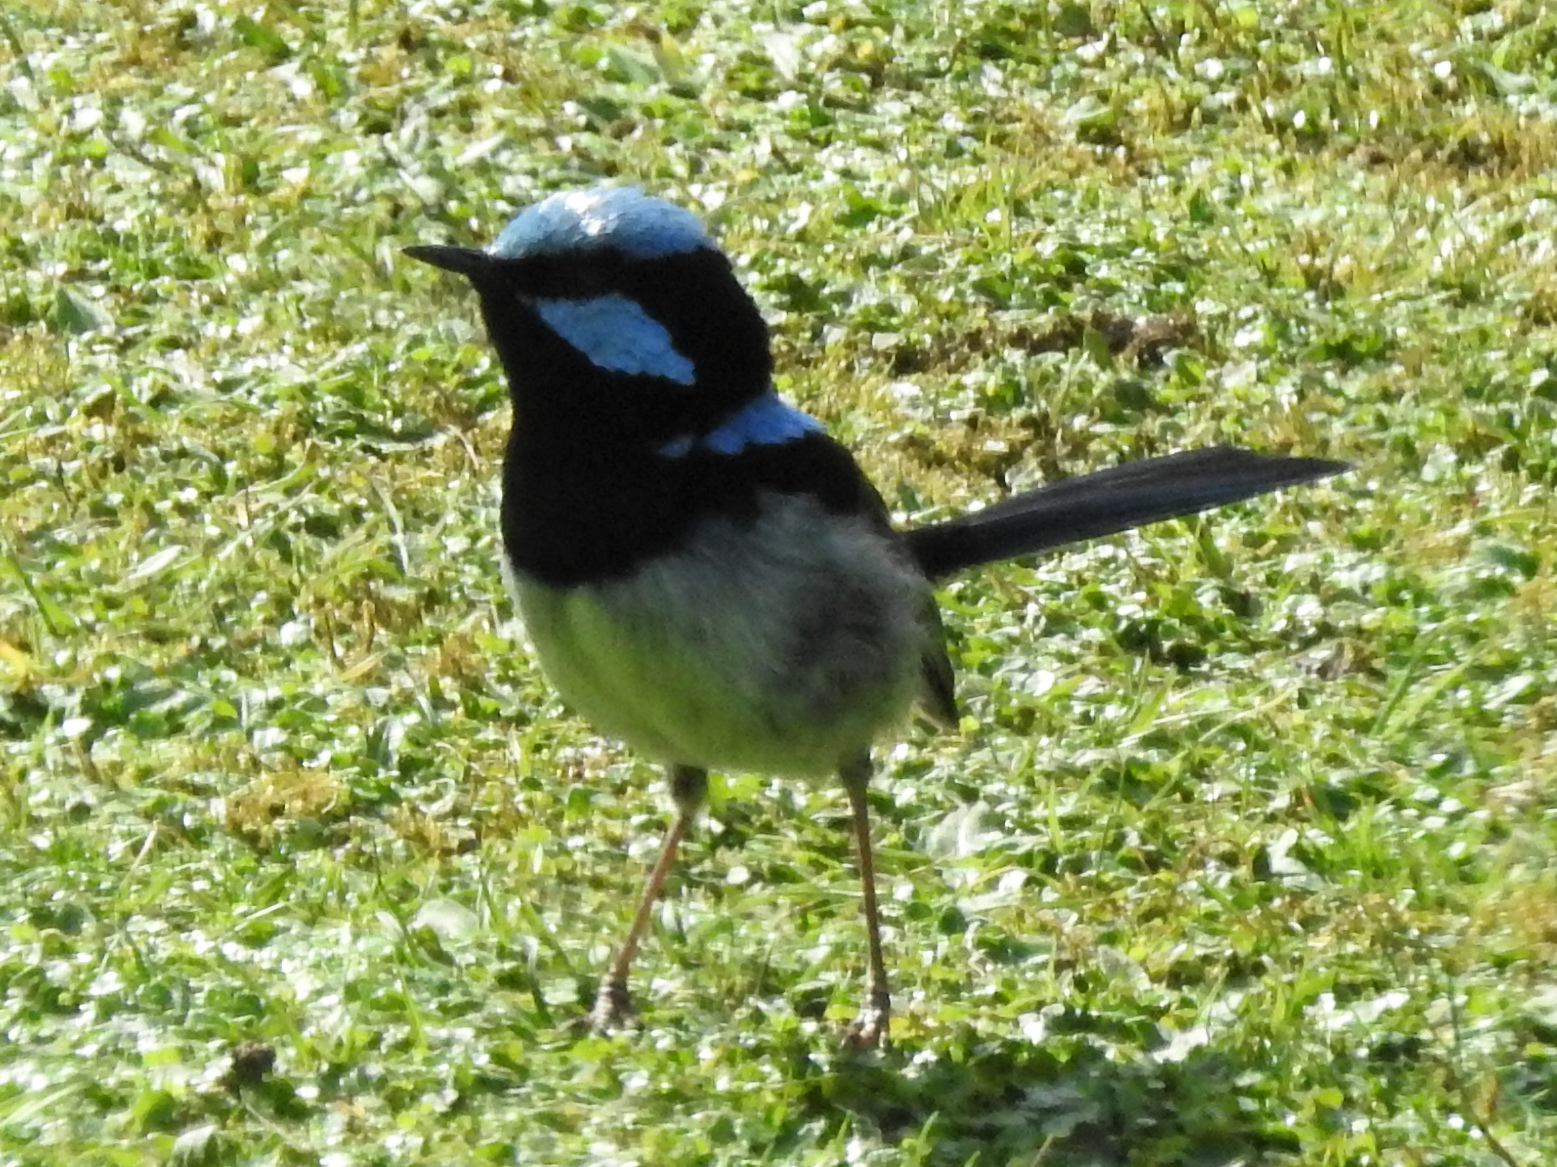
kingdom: Animalia
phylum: Chordata
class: Aves
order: Passeriformes
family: Maluridae
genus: Malurus
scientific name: Malurus cyaneus
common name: Superb fairywren
